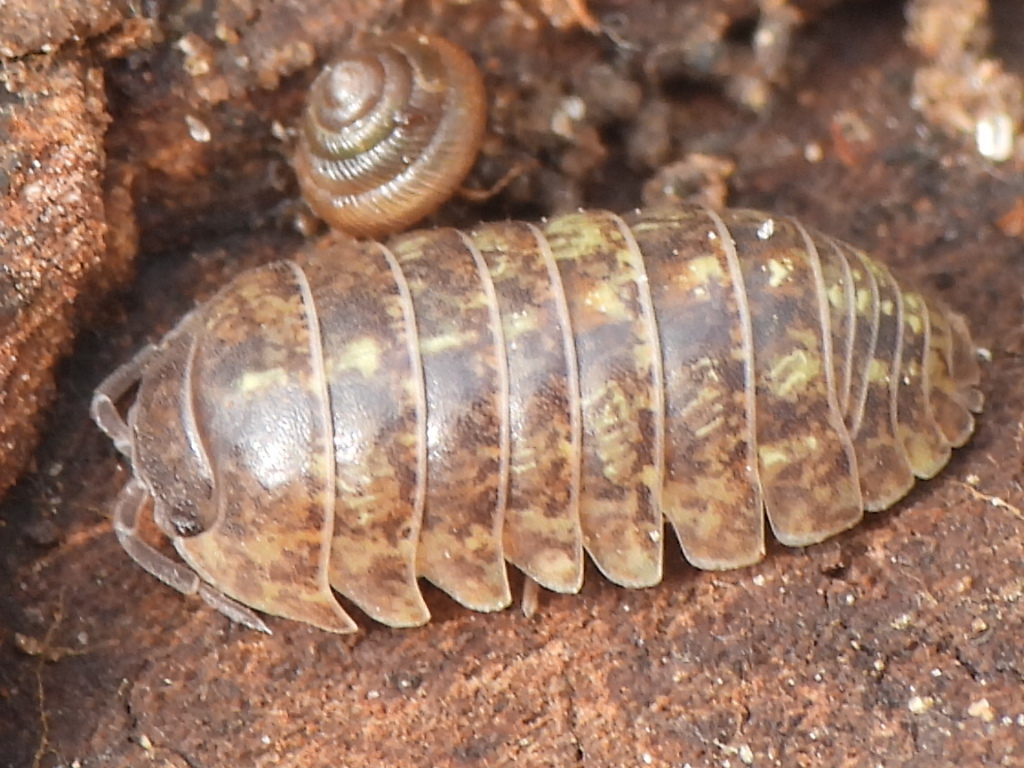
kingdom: Animalia
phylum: Arthropoda
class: Malacostraca
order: Isopoda
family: Armadillidiidae
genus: Armadillidium
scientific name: Armadillidium vulgare
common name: Common pill woodlouse
